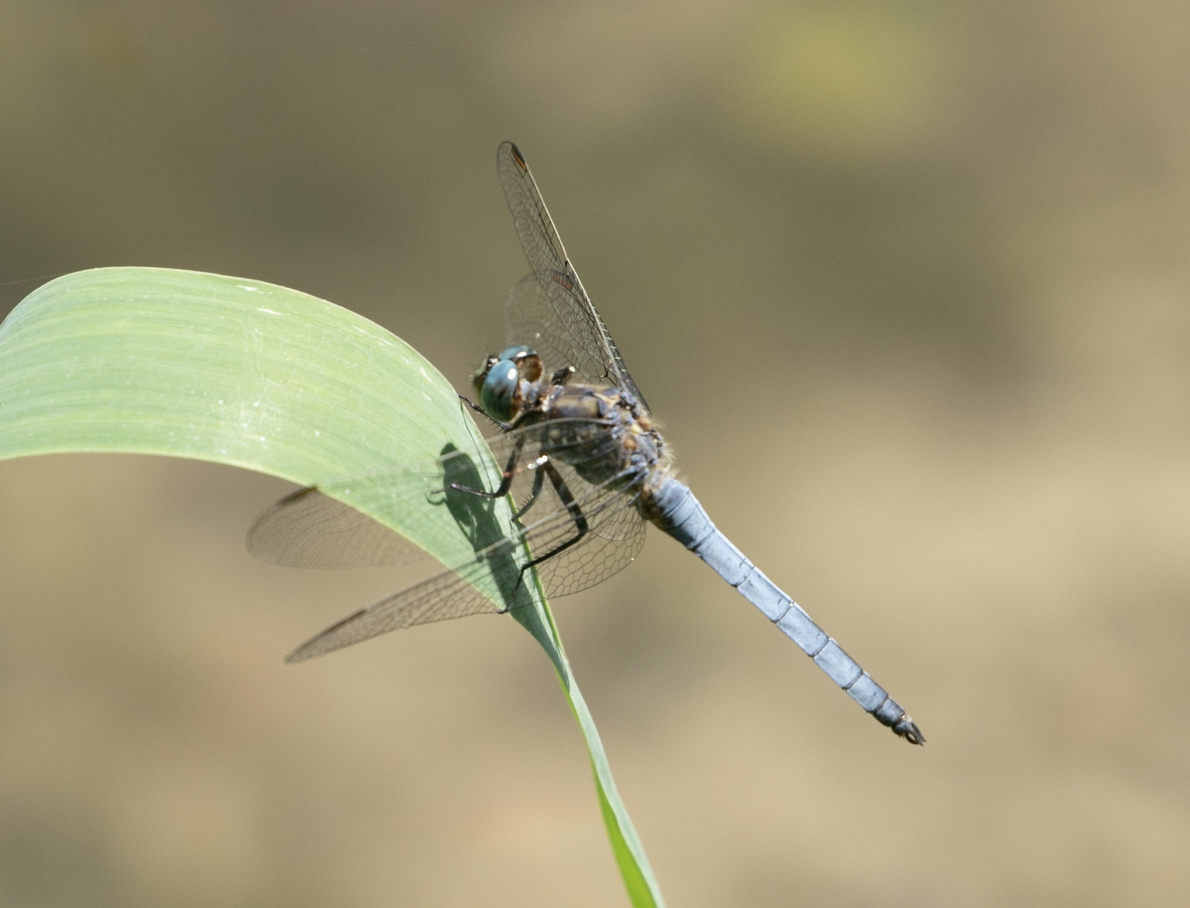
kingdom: Animalia
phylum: Arthropoda
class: Insecta
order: Odonata
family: Libellulidae
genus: Orthetrum
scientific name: Orthetrum coerulescens
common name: Keeled skimmer
